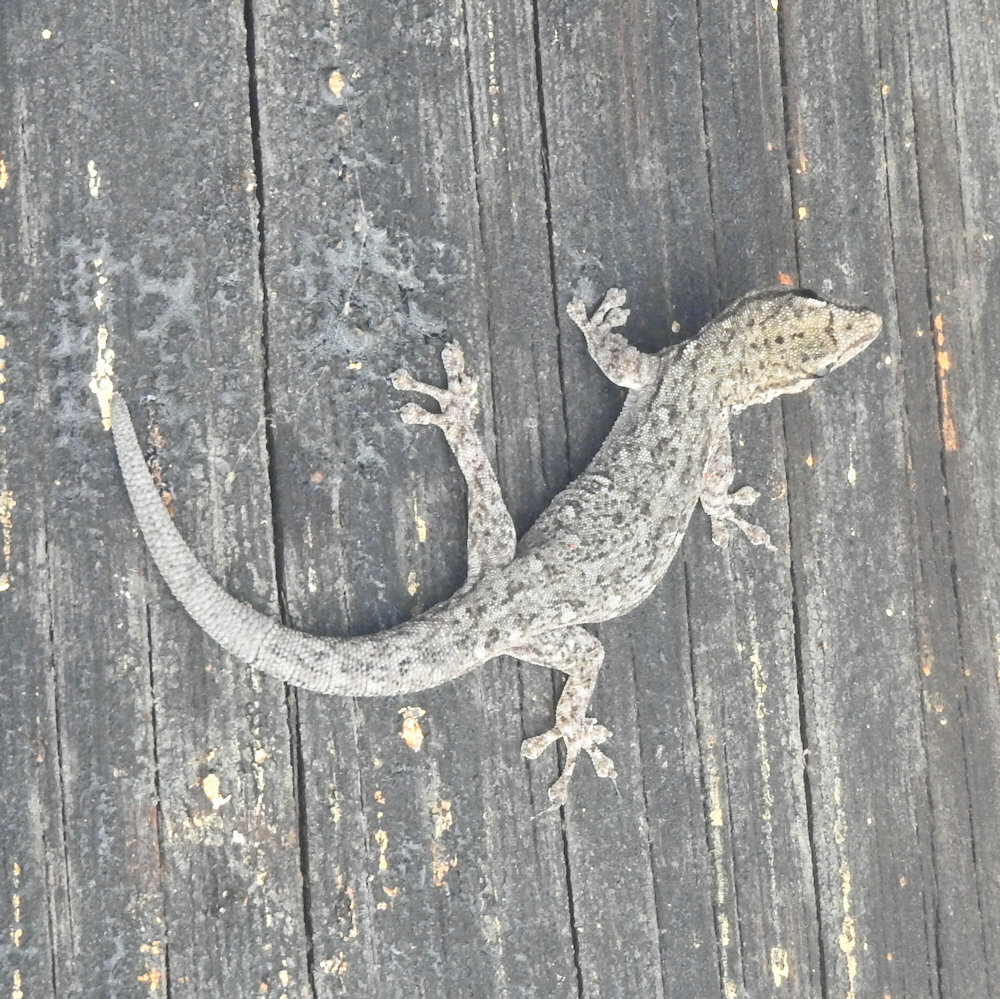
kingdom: Animalia
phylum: Chordata
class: Squamata
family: Gekkonidae
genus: Lygodactylus
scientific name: Lygodactylus chobiensis
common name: Okavango dwarf gecko
